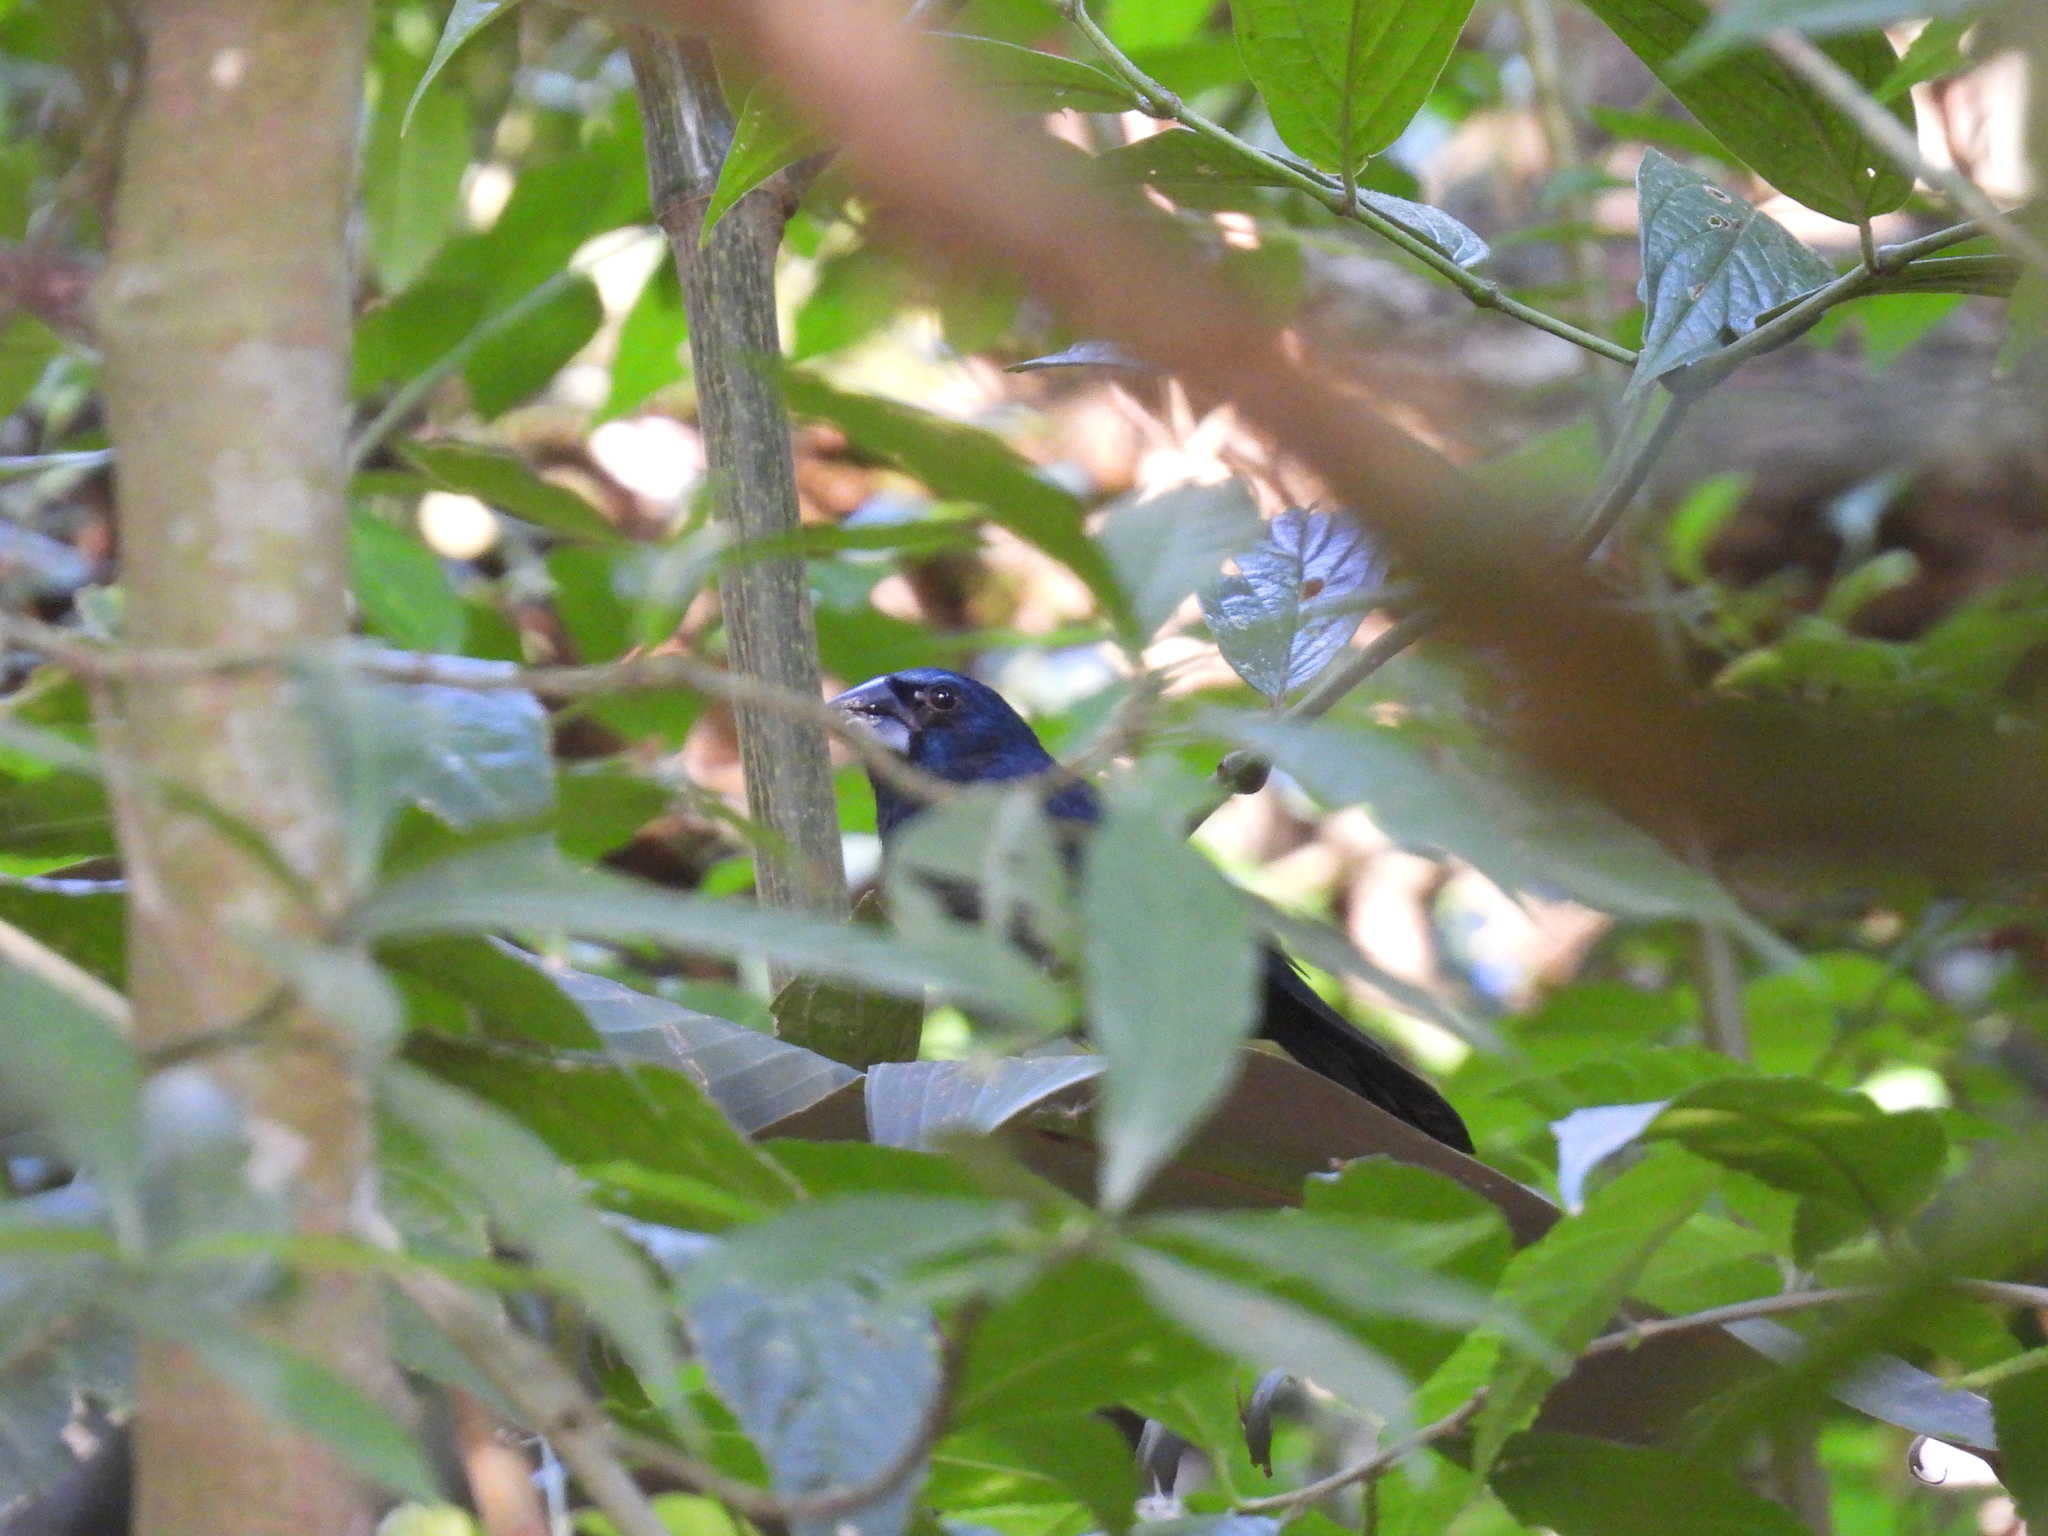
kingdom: Animalia
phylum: Chordata
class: Aves
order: Passeriformes
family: Cardinalidae
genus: Cyanocompsa
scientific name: Cyanocompsa cyanoides
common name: Blue-black grosbeak
